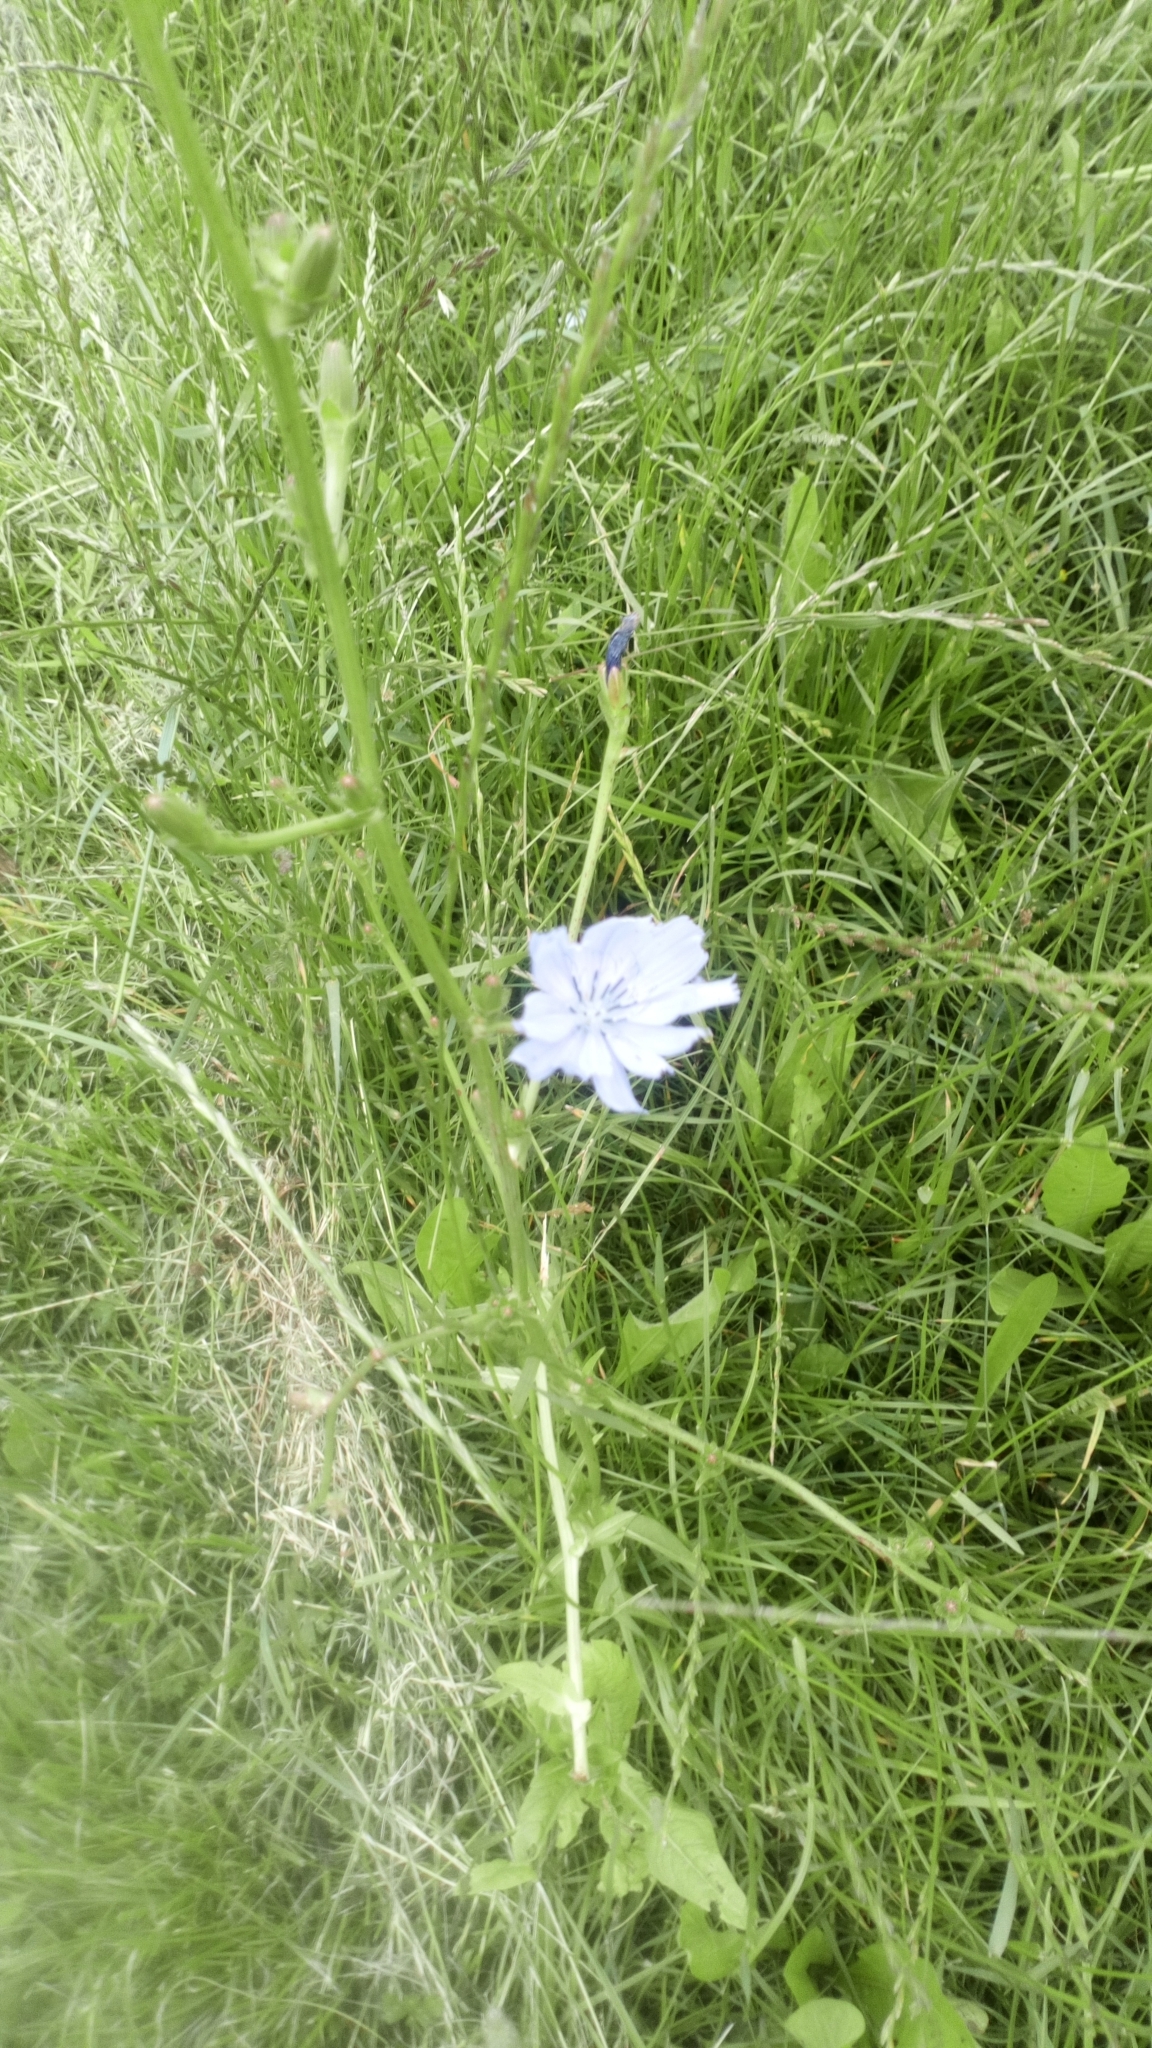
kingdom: Plantae
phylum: Tracheophyta
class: Magnoliopsida
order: Asterales
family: Asteraceae
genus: Cichorium
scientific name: Cichorium intybus
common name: Chicory
